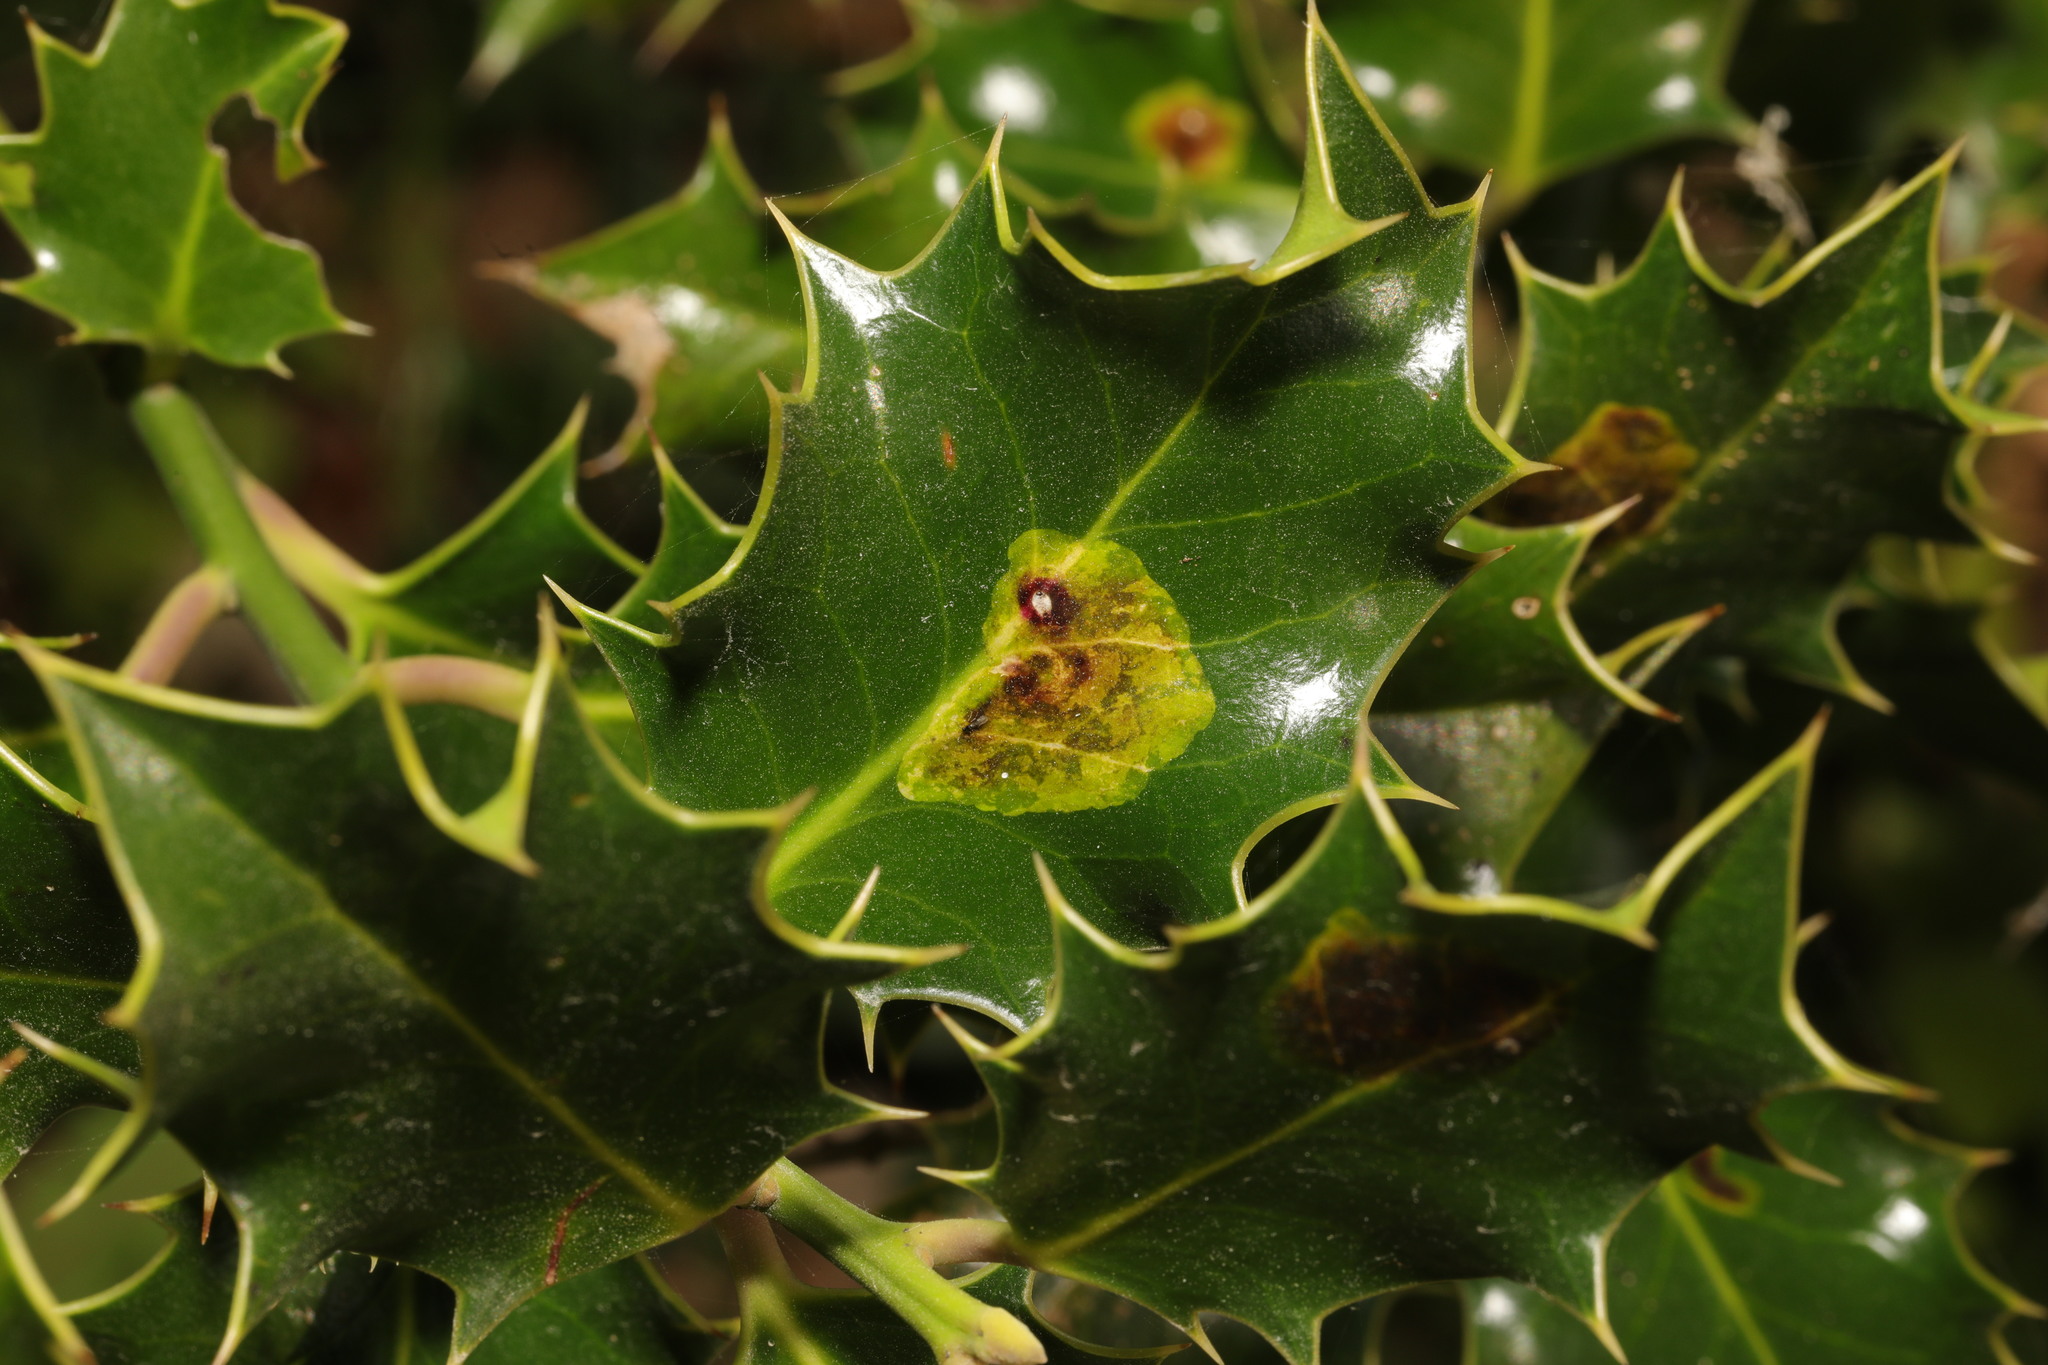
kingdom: Animalia
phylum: Arthropoda
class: Insecta
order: Diptera
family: Agromyzidae
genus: Phytomyza
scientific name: Phytomyza ilicis
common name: Holly leafminer
